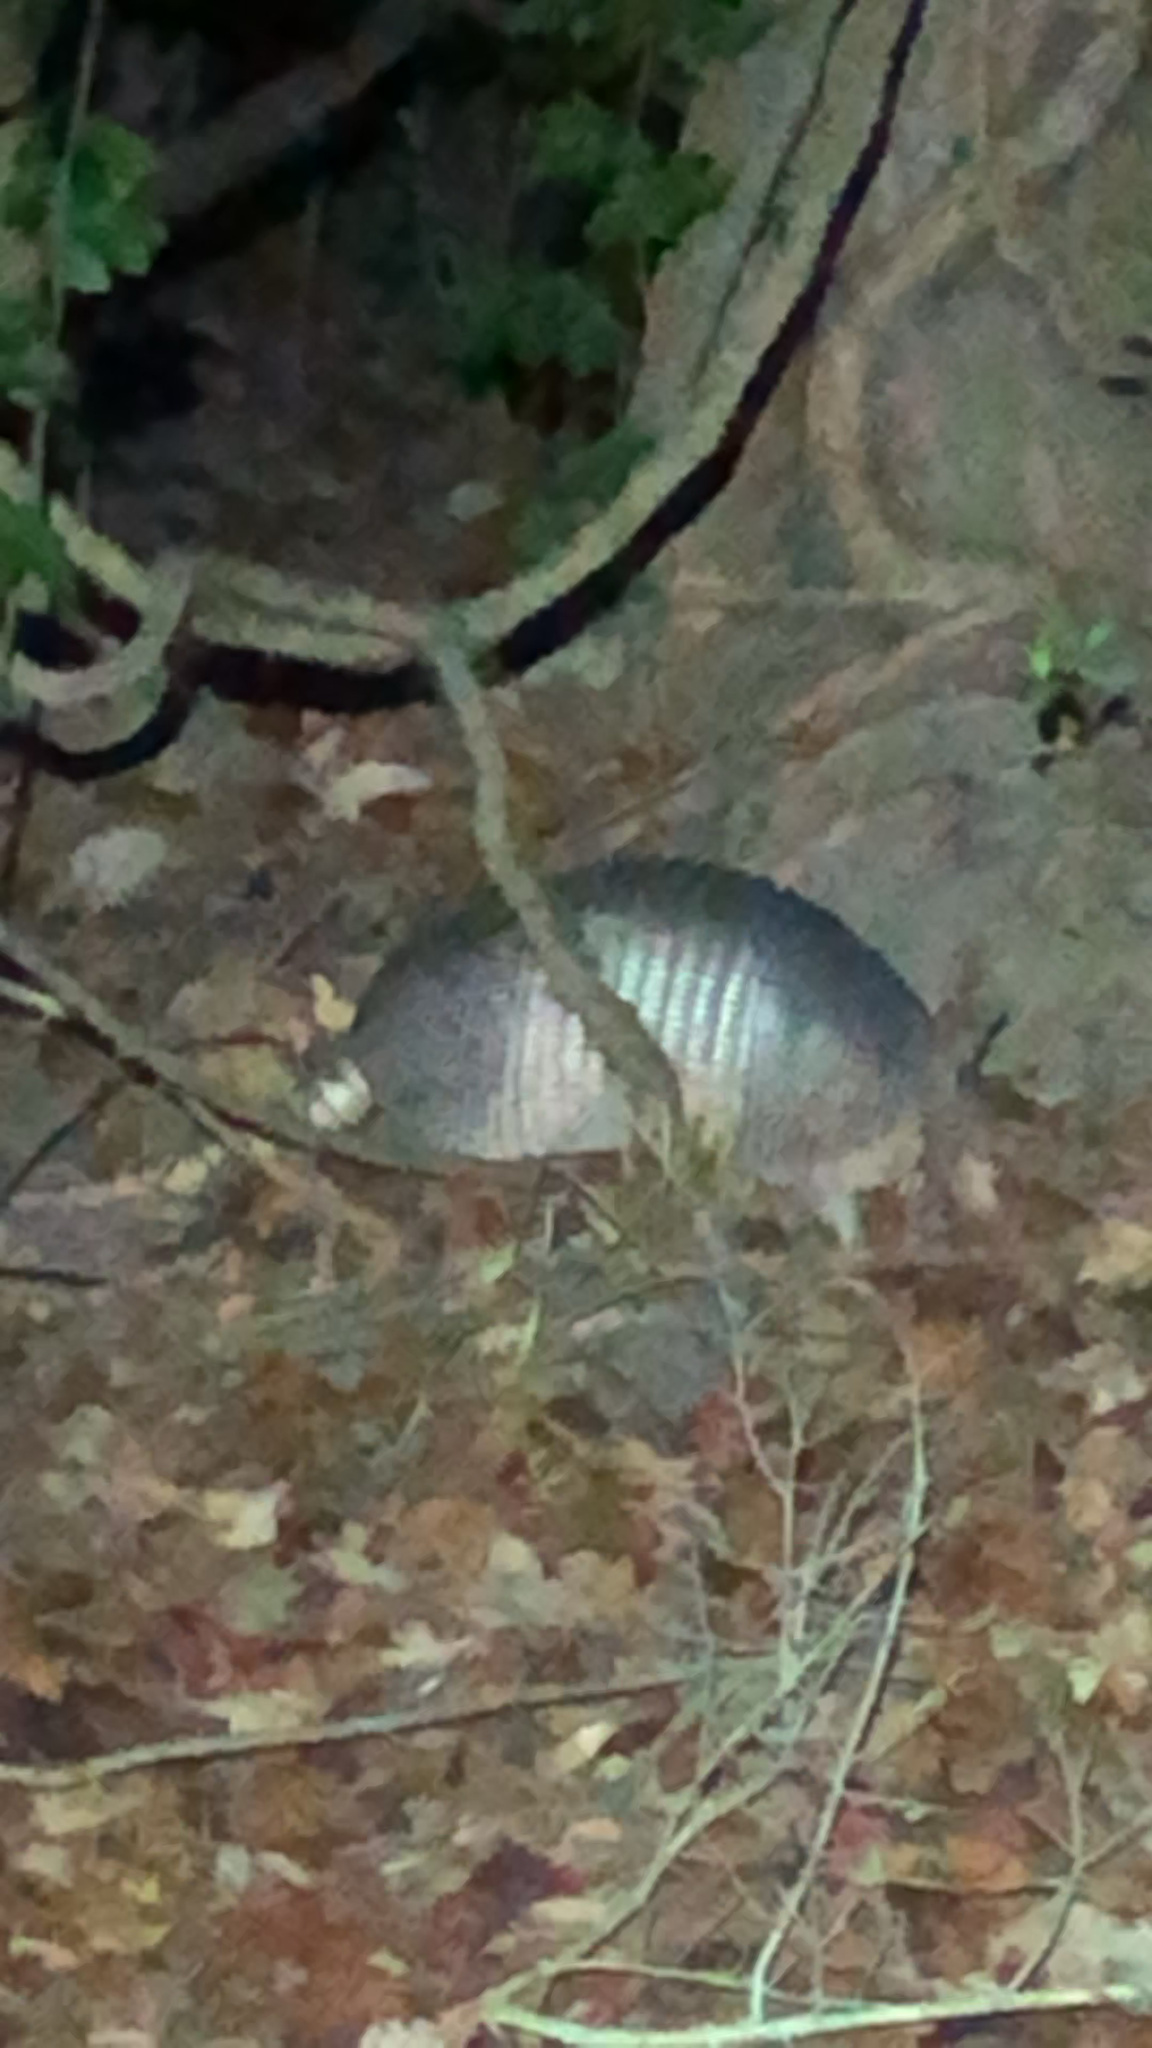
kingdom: Animalia
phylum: Chordata
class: Mammalia
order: Cingulata
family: Dasypodidae
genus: Dasypus
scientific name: Dasypus novemcinctus
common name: Nine-banded armadillo
